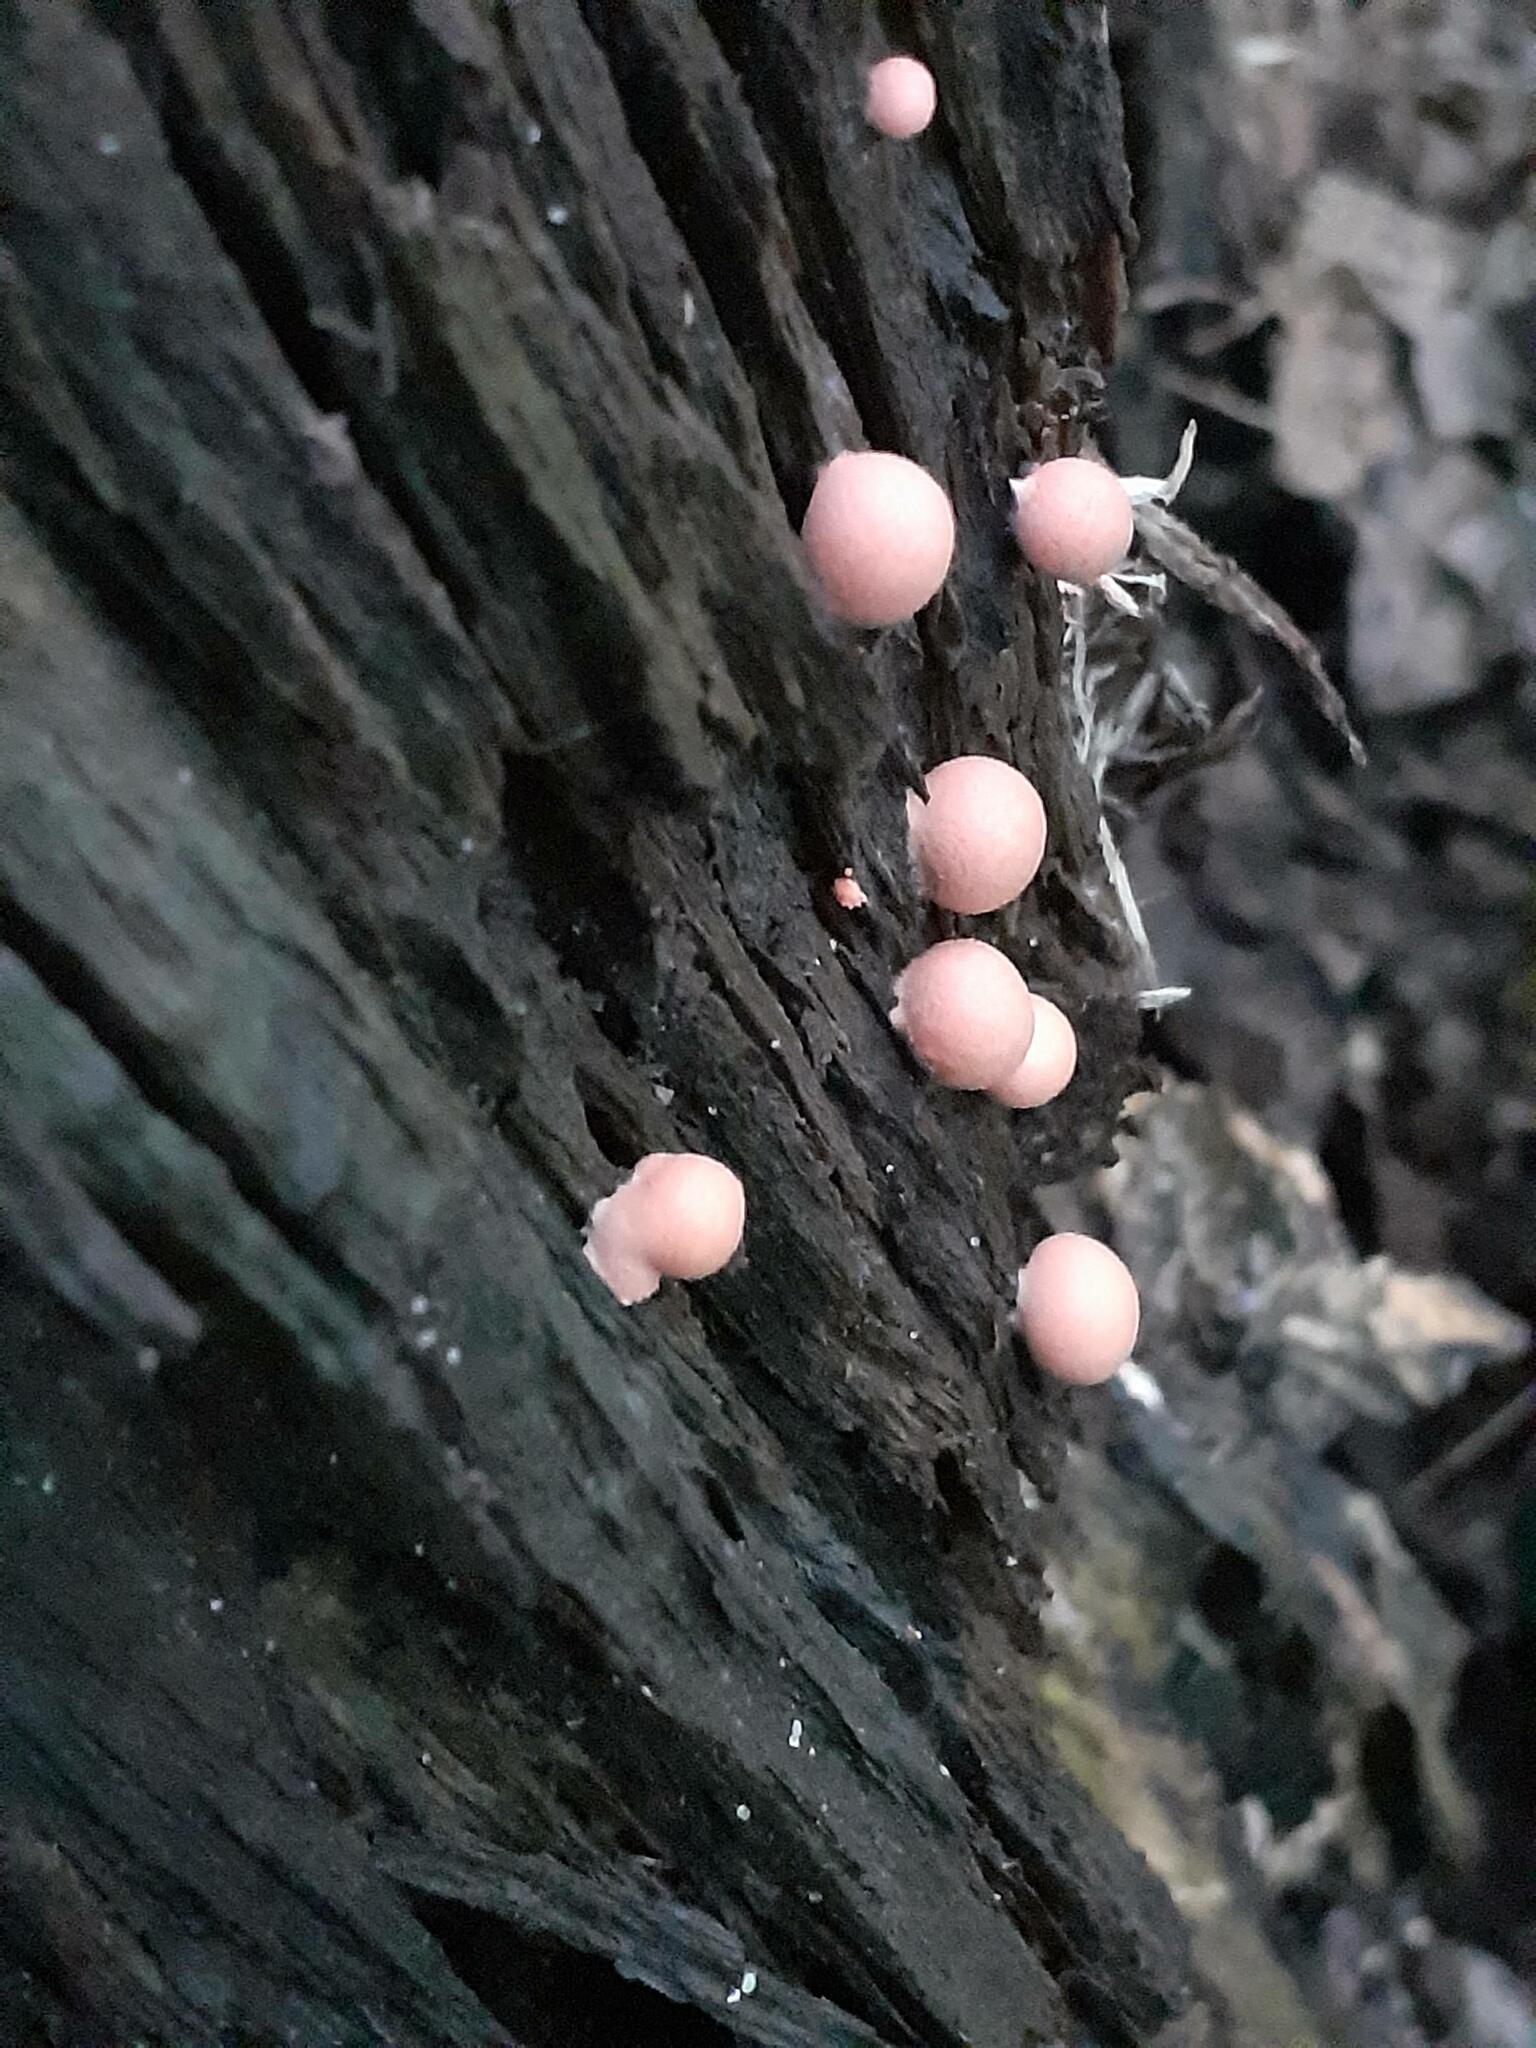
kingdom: Protozoa
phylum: Mycetozoa
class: Myxomycetes
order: Cribrariales
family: Tubiferaceae
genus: Lycogala
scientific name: Lycogala epidendrum
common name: Wolf's milk
